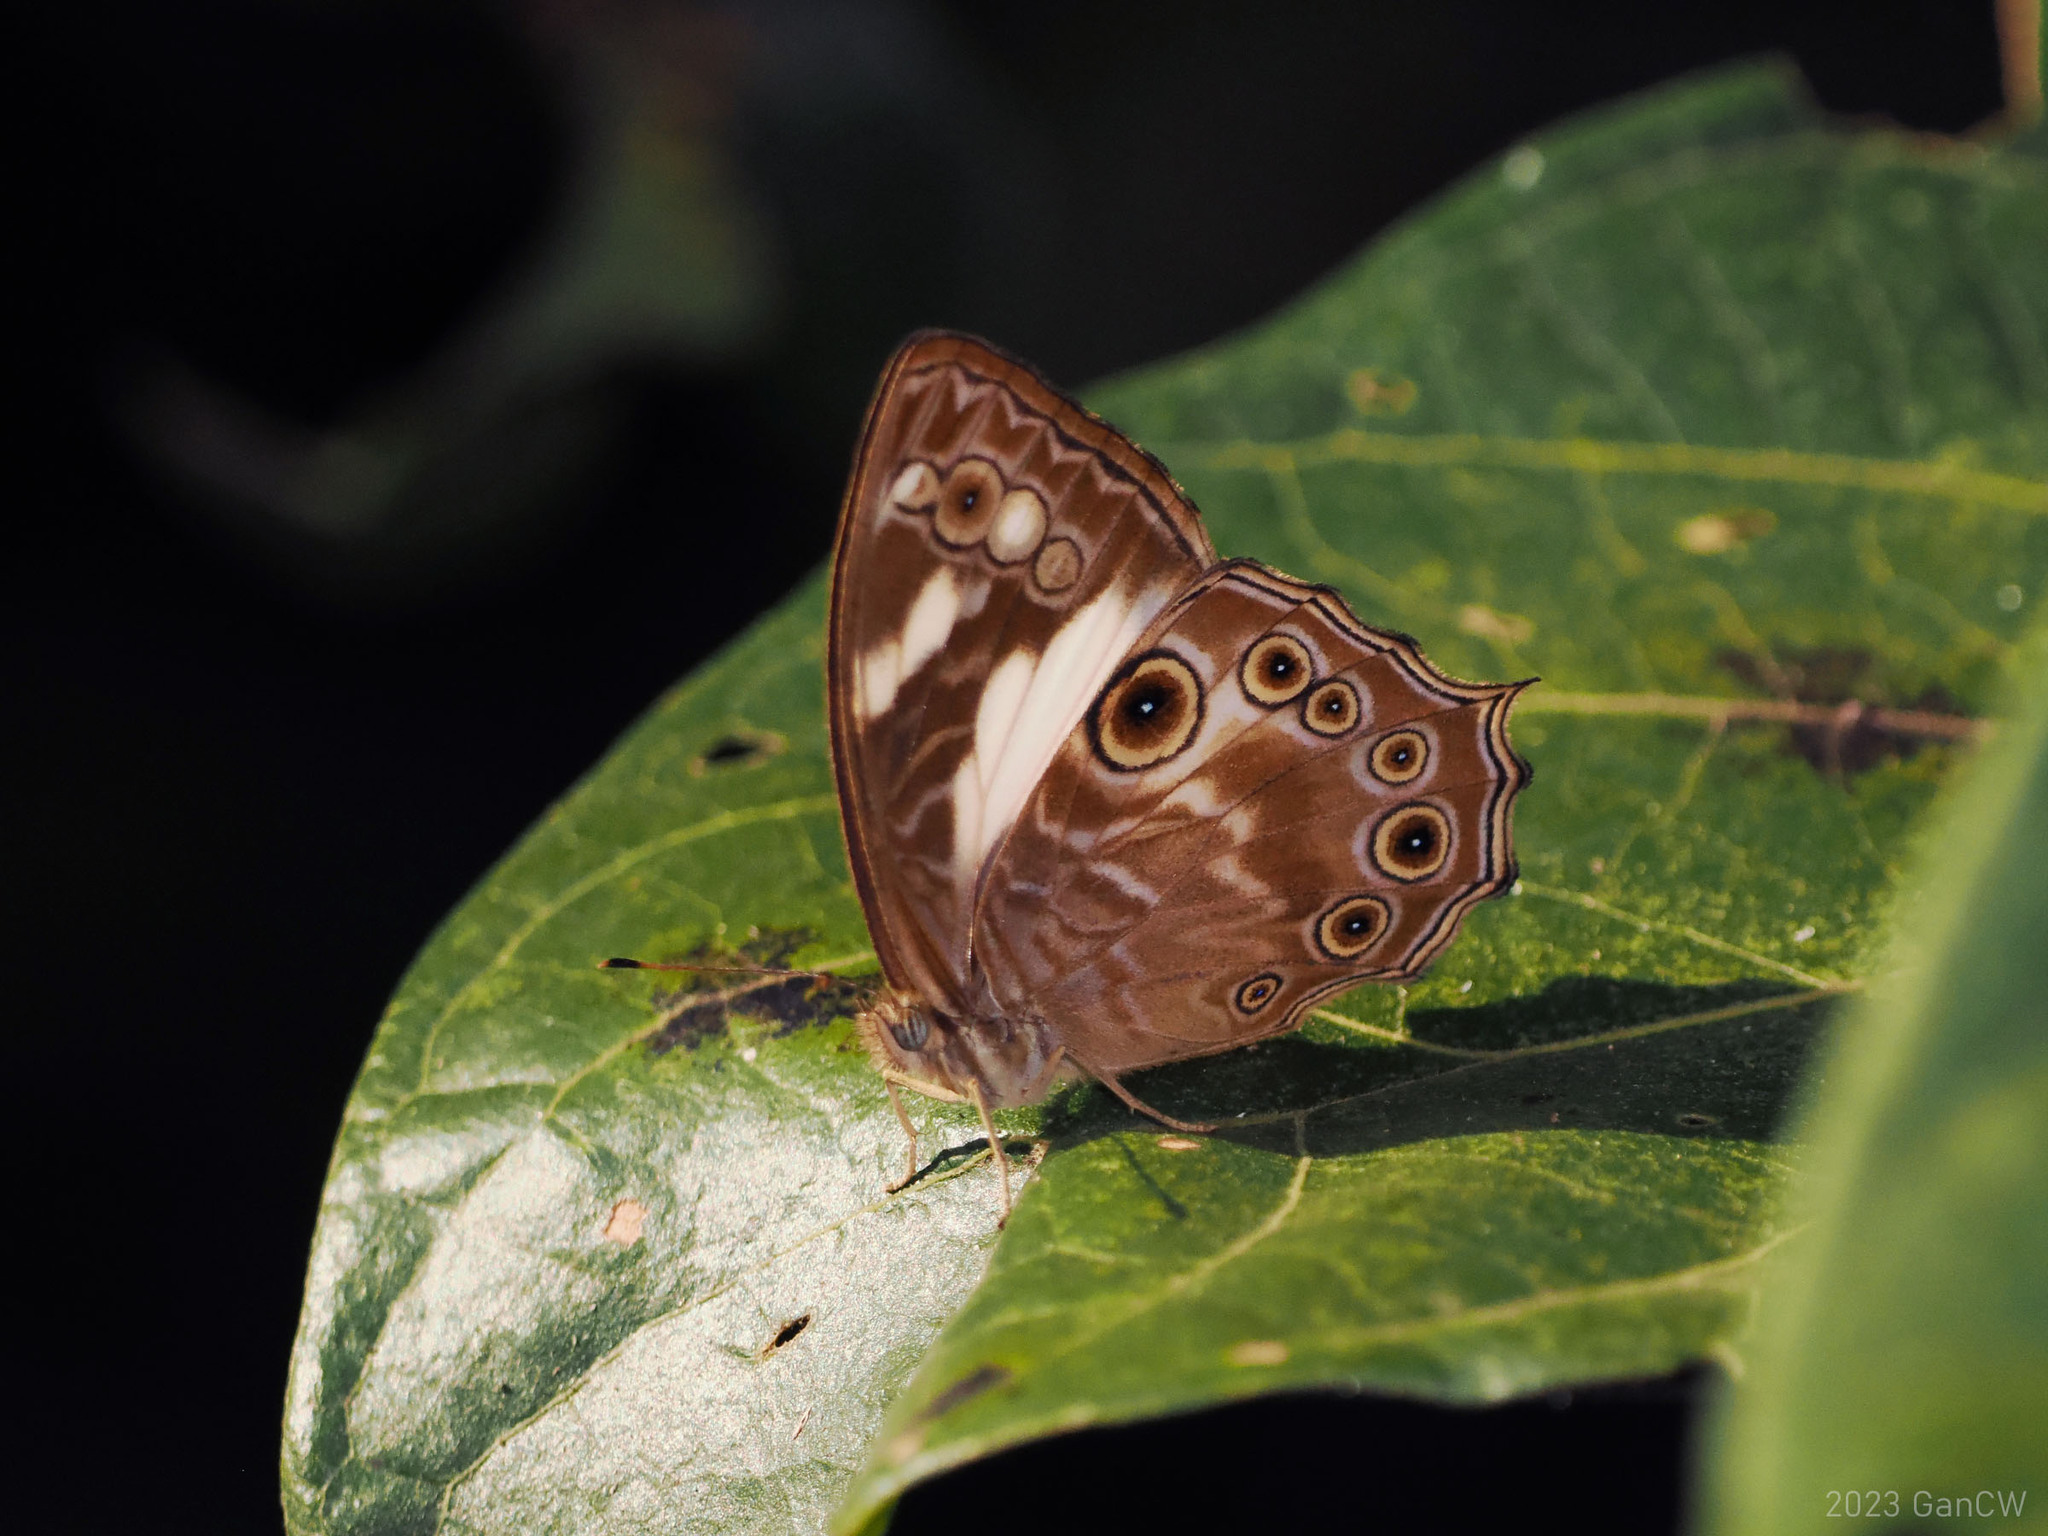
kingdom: Animalia
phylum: Arthropoda
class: Insecta
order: Lepidoptera
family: Nymphalidae
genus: Ptychandra
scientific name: Ptychandra leucogyne
